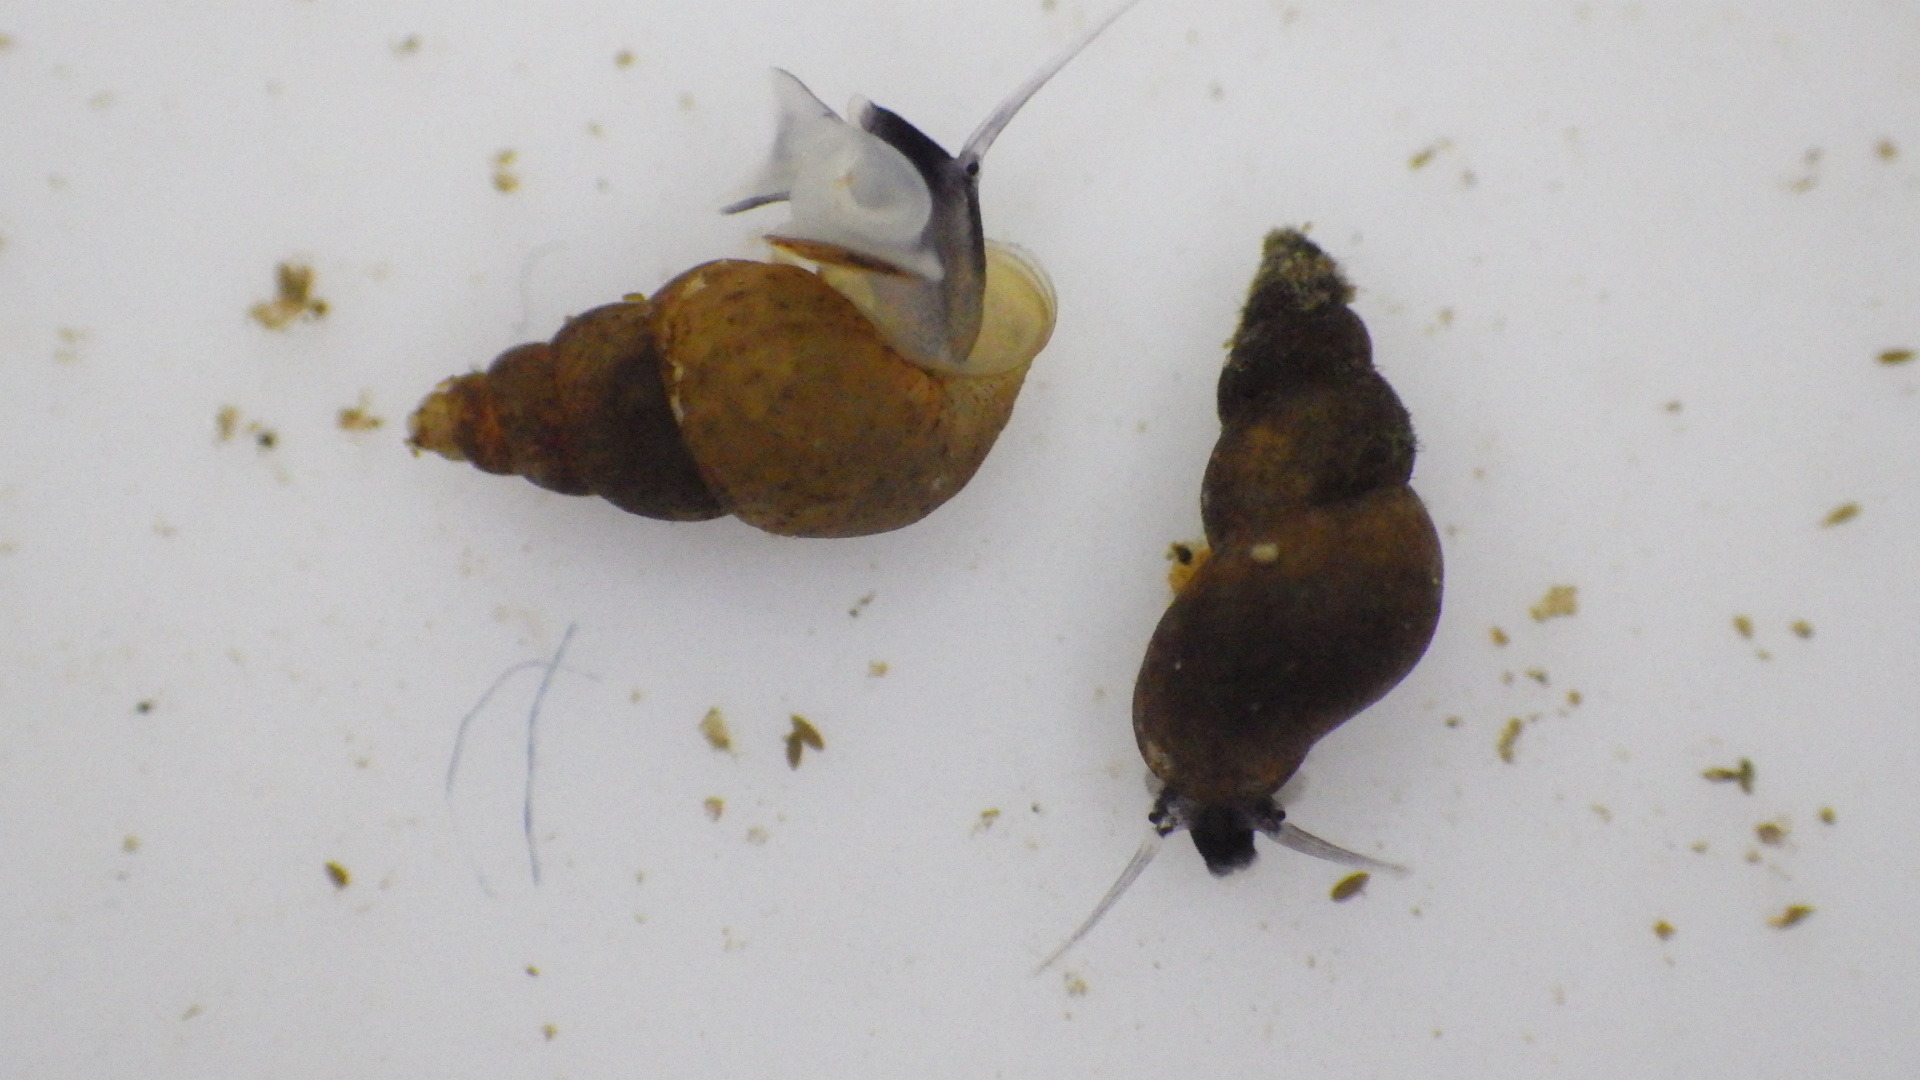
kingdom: Animalia
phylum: Mollusca
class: Gastropoda
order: Littorinimorpha
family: Tateidae
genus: Potamopyrgus
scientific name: Potamopyrgus antipodarum
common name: Jenkins' spire snail
